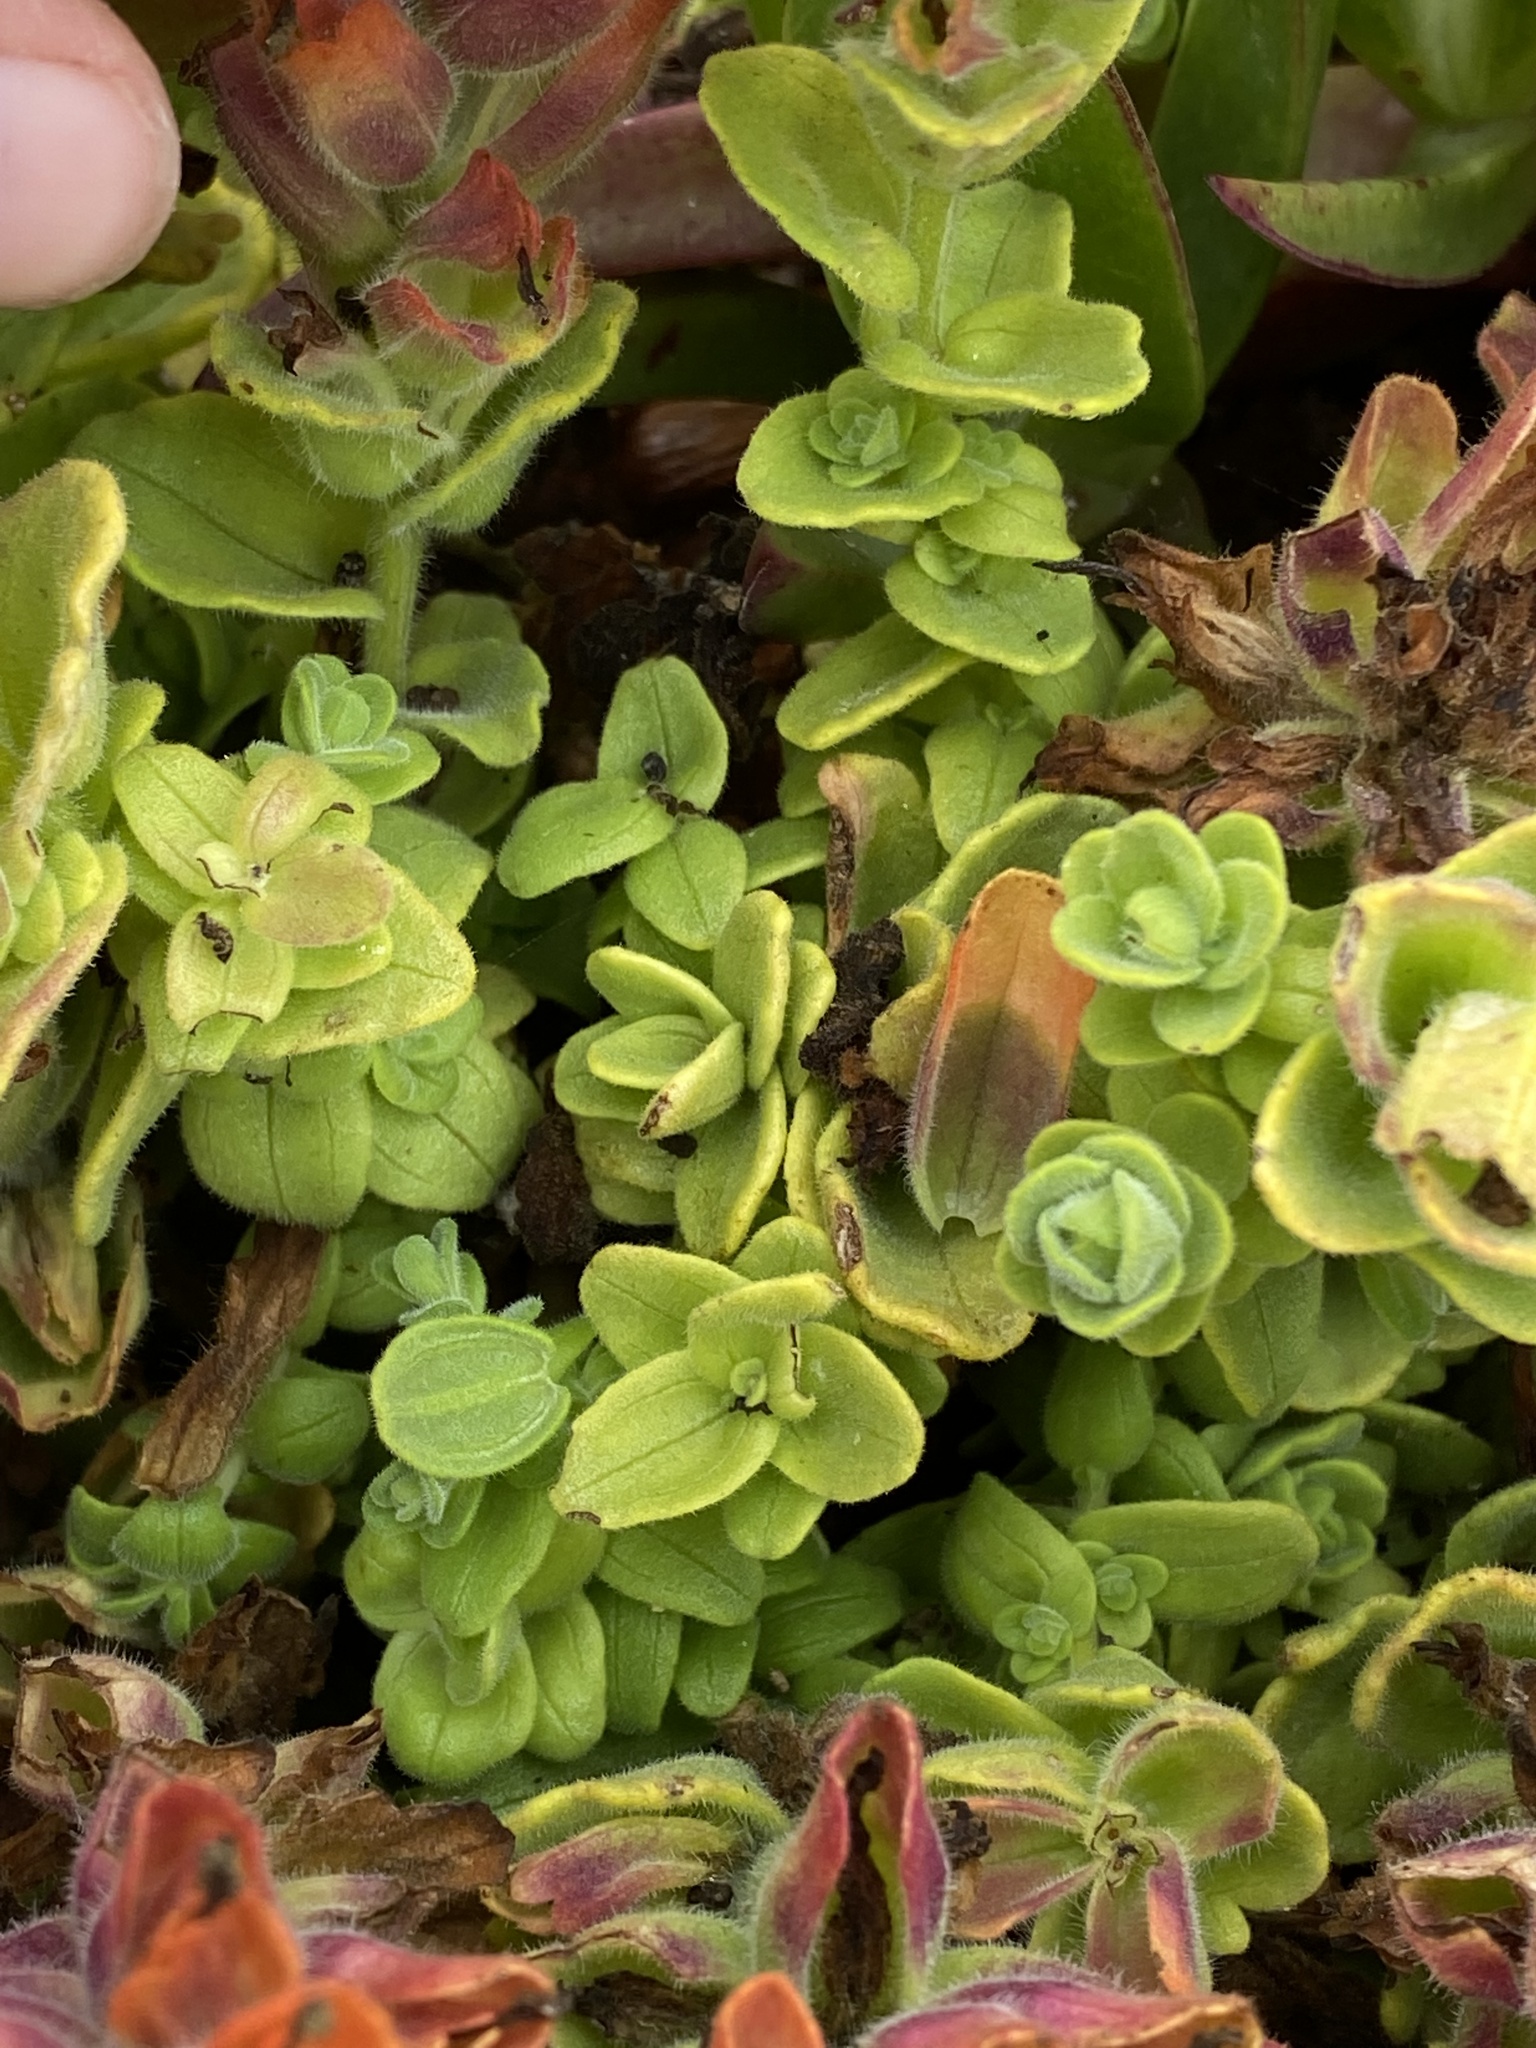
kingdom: Plantae
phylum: Tracheophyta
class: Magnoliopsida
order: Lamiales
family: Orobanchaceae
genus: Castilleja
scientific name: Castilleja latifolia
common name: Monterey indian paintbrush
